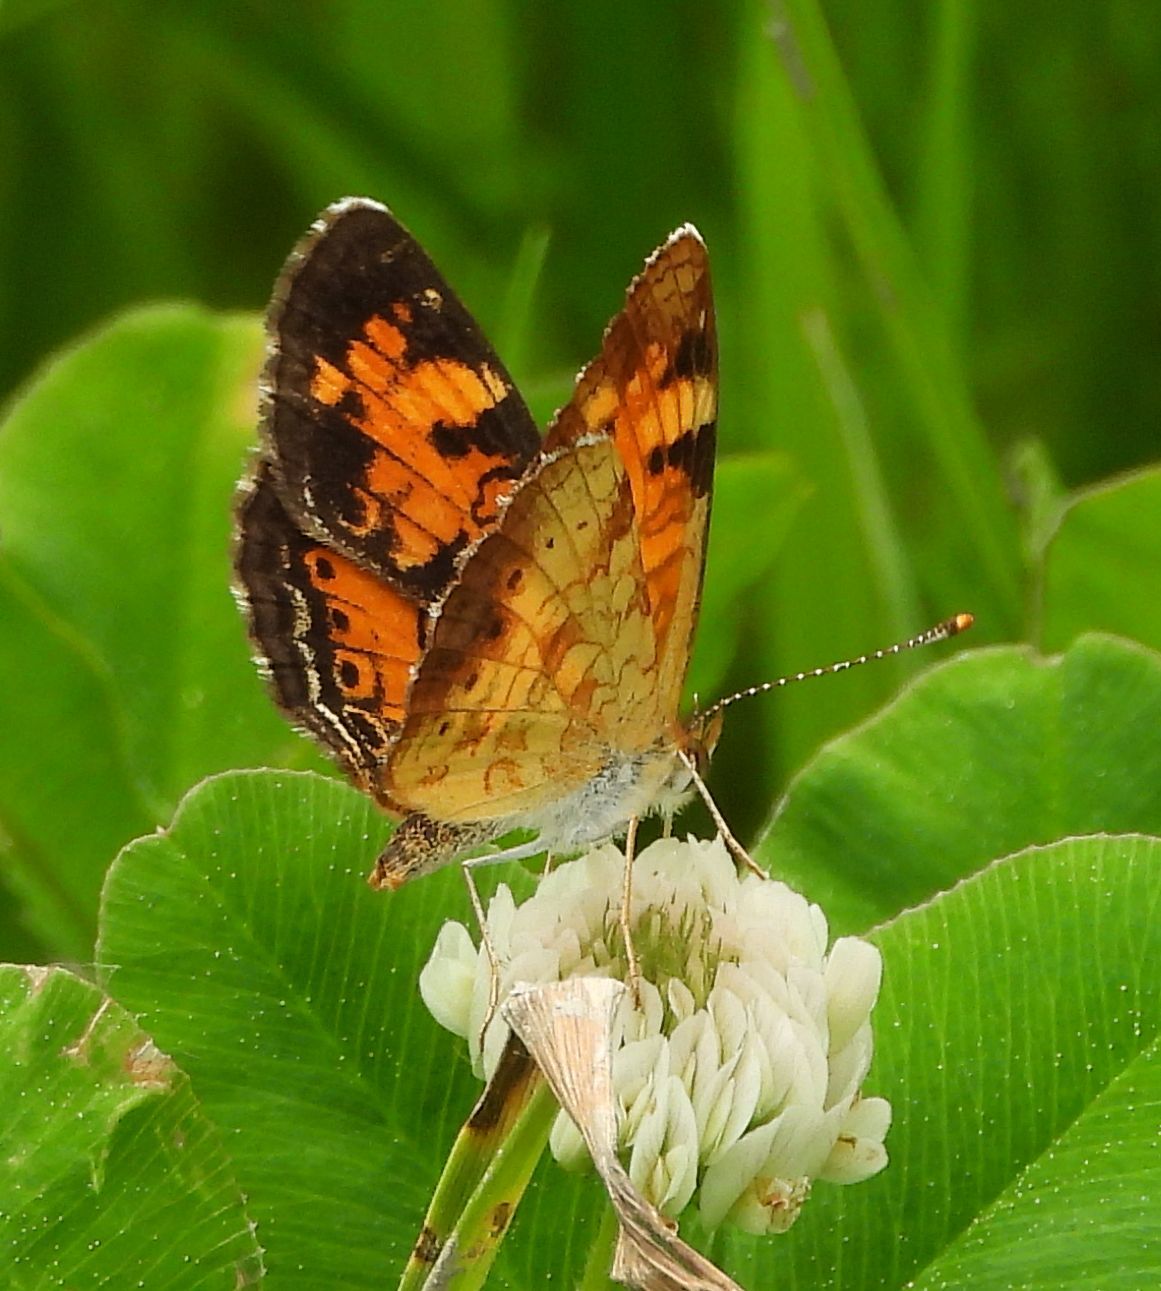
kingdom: Animalia
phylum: Arthropoda
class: Insecta
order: Lepidoptera
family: Nymphalidae
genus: Phyciodes
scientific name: Phyciodes tharos
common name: Pearl crescent
